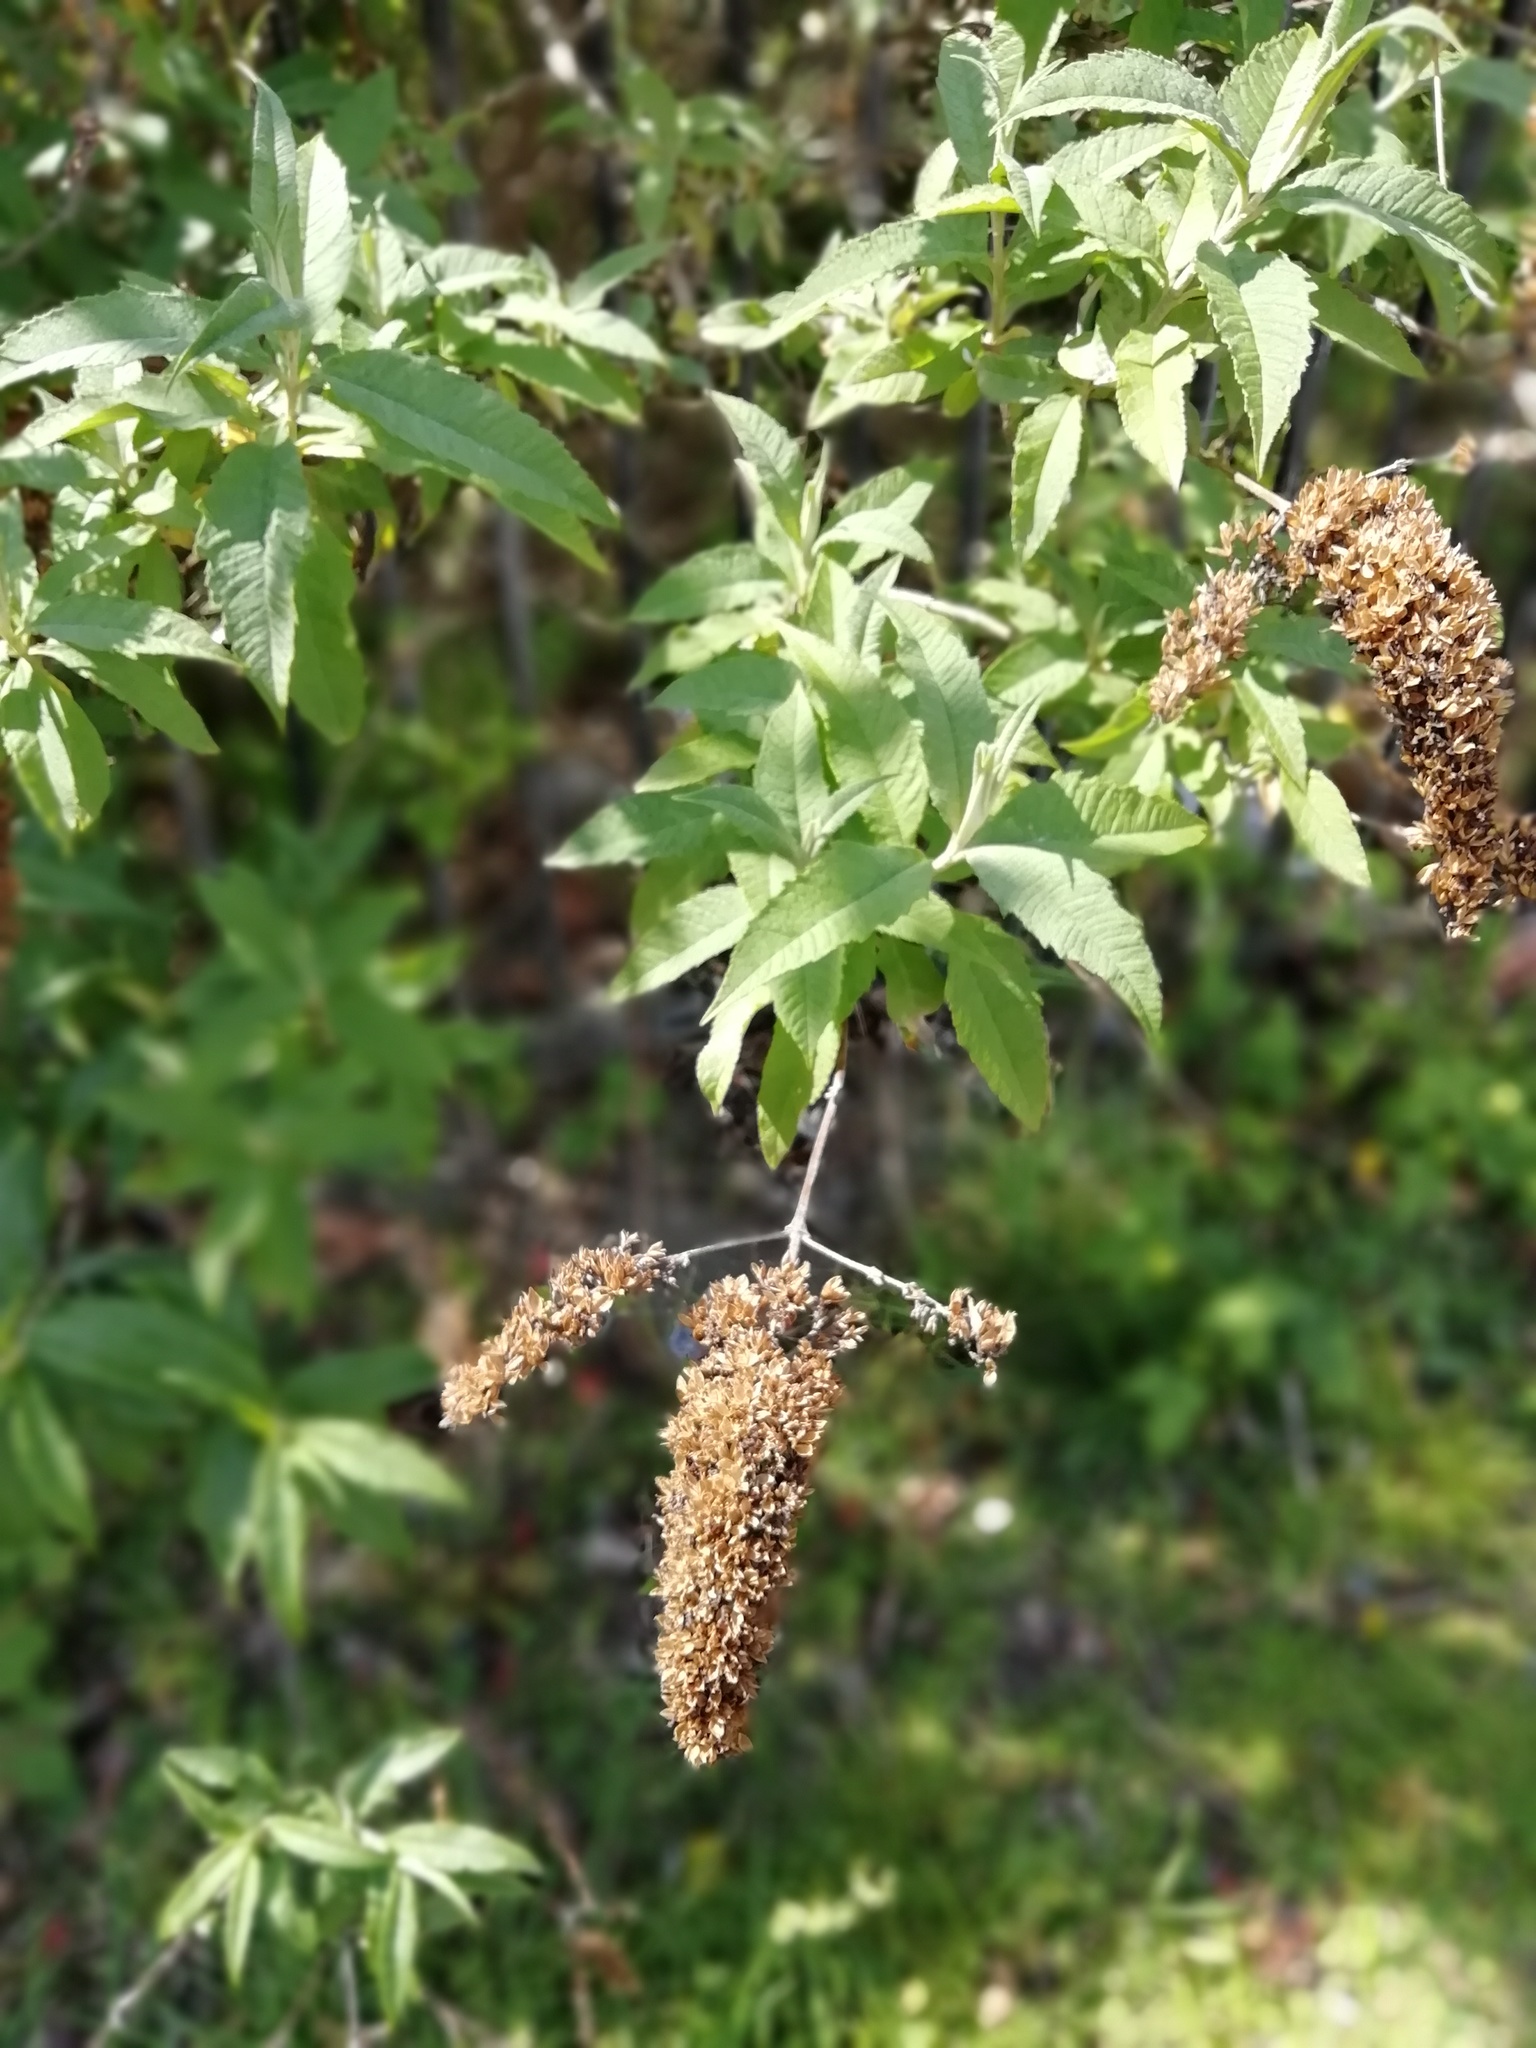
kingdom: Plantae
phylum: Tracheophyta
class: Magnoliopsida
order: Lamiales
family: Scrophulariaceae
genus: Buddleja
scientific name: Buddleja davidii
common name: Butterfly-bush
